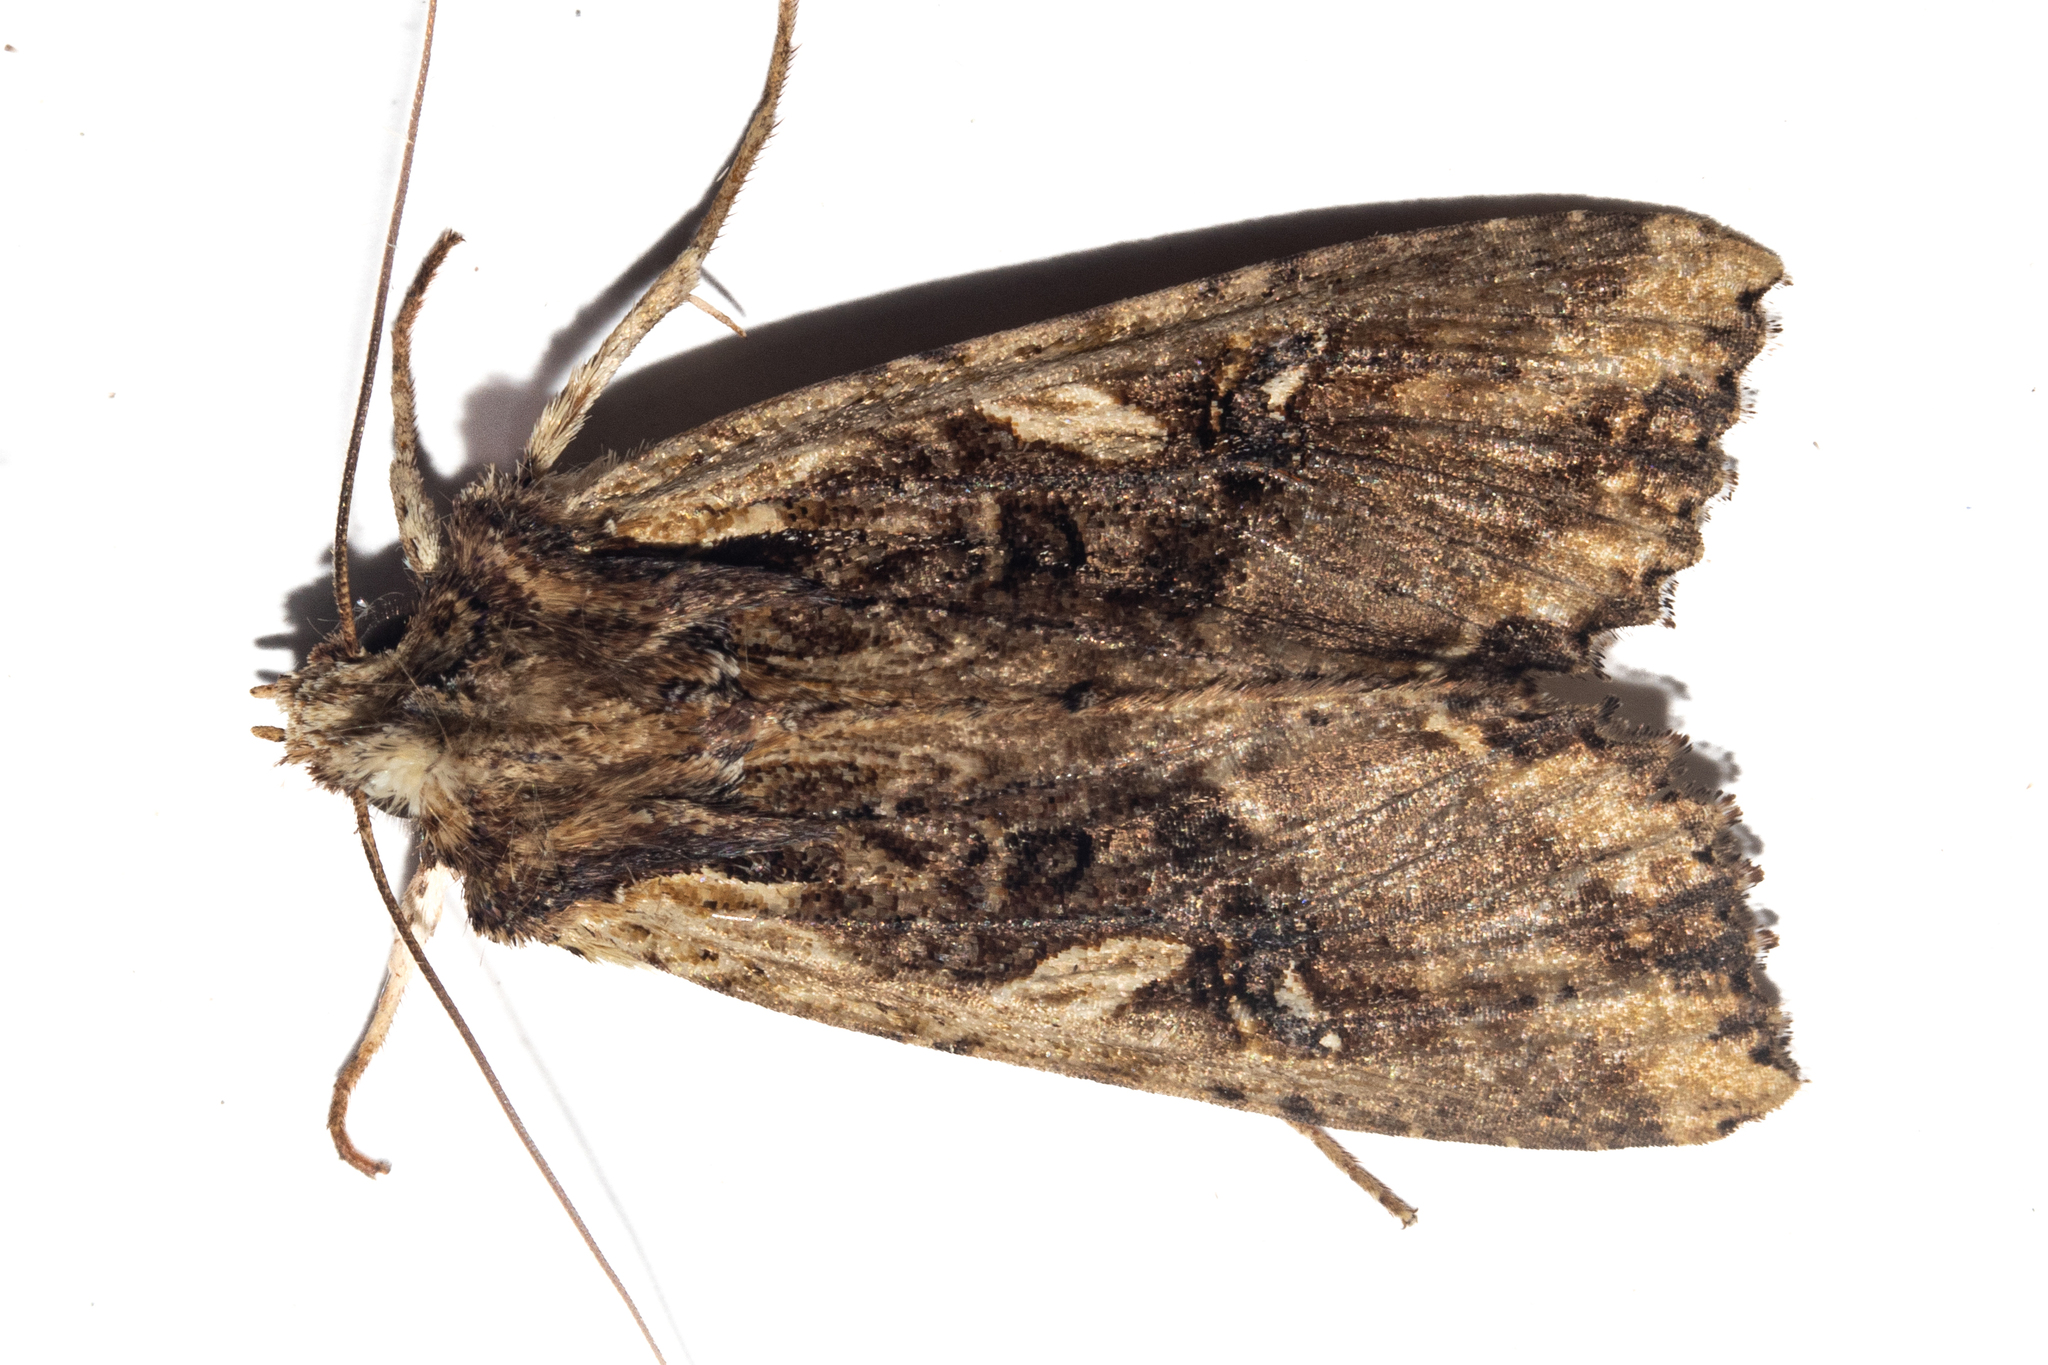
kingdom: Animalia
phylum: Arthropoda
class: Insecta
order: Lepidoptera
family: Noctuidae
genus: Meterana
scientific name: Meterana stipata
